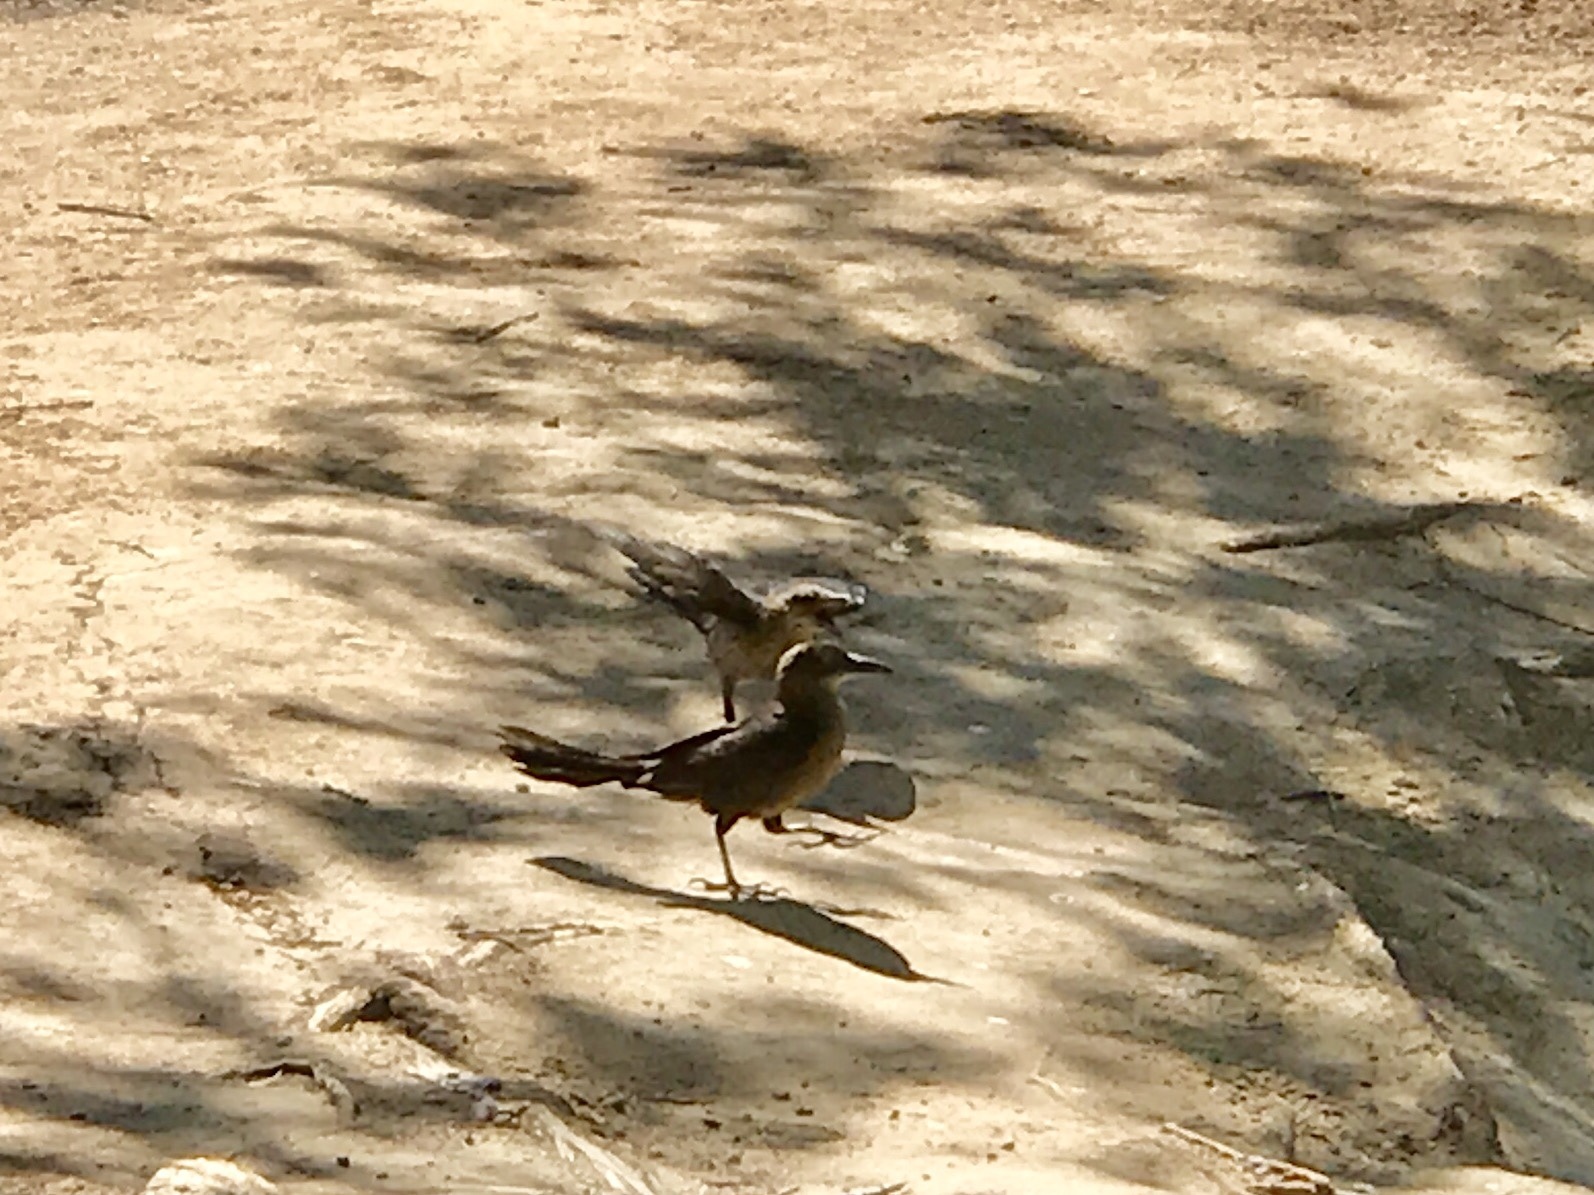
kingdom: Animalia
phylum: Chordata
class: Aves
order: Passeriformes
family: Icteridae
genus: Quiscalus
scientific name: Quiscalus mexicanus
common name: Great-tailed grackle
